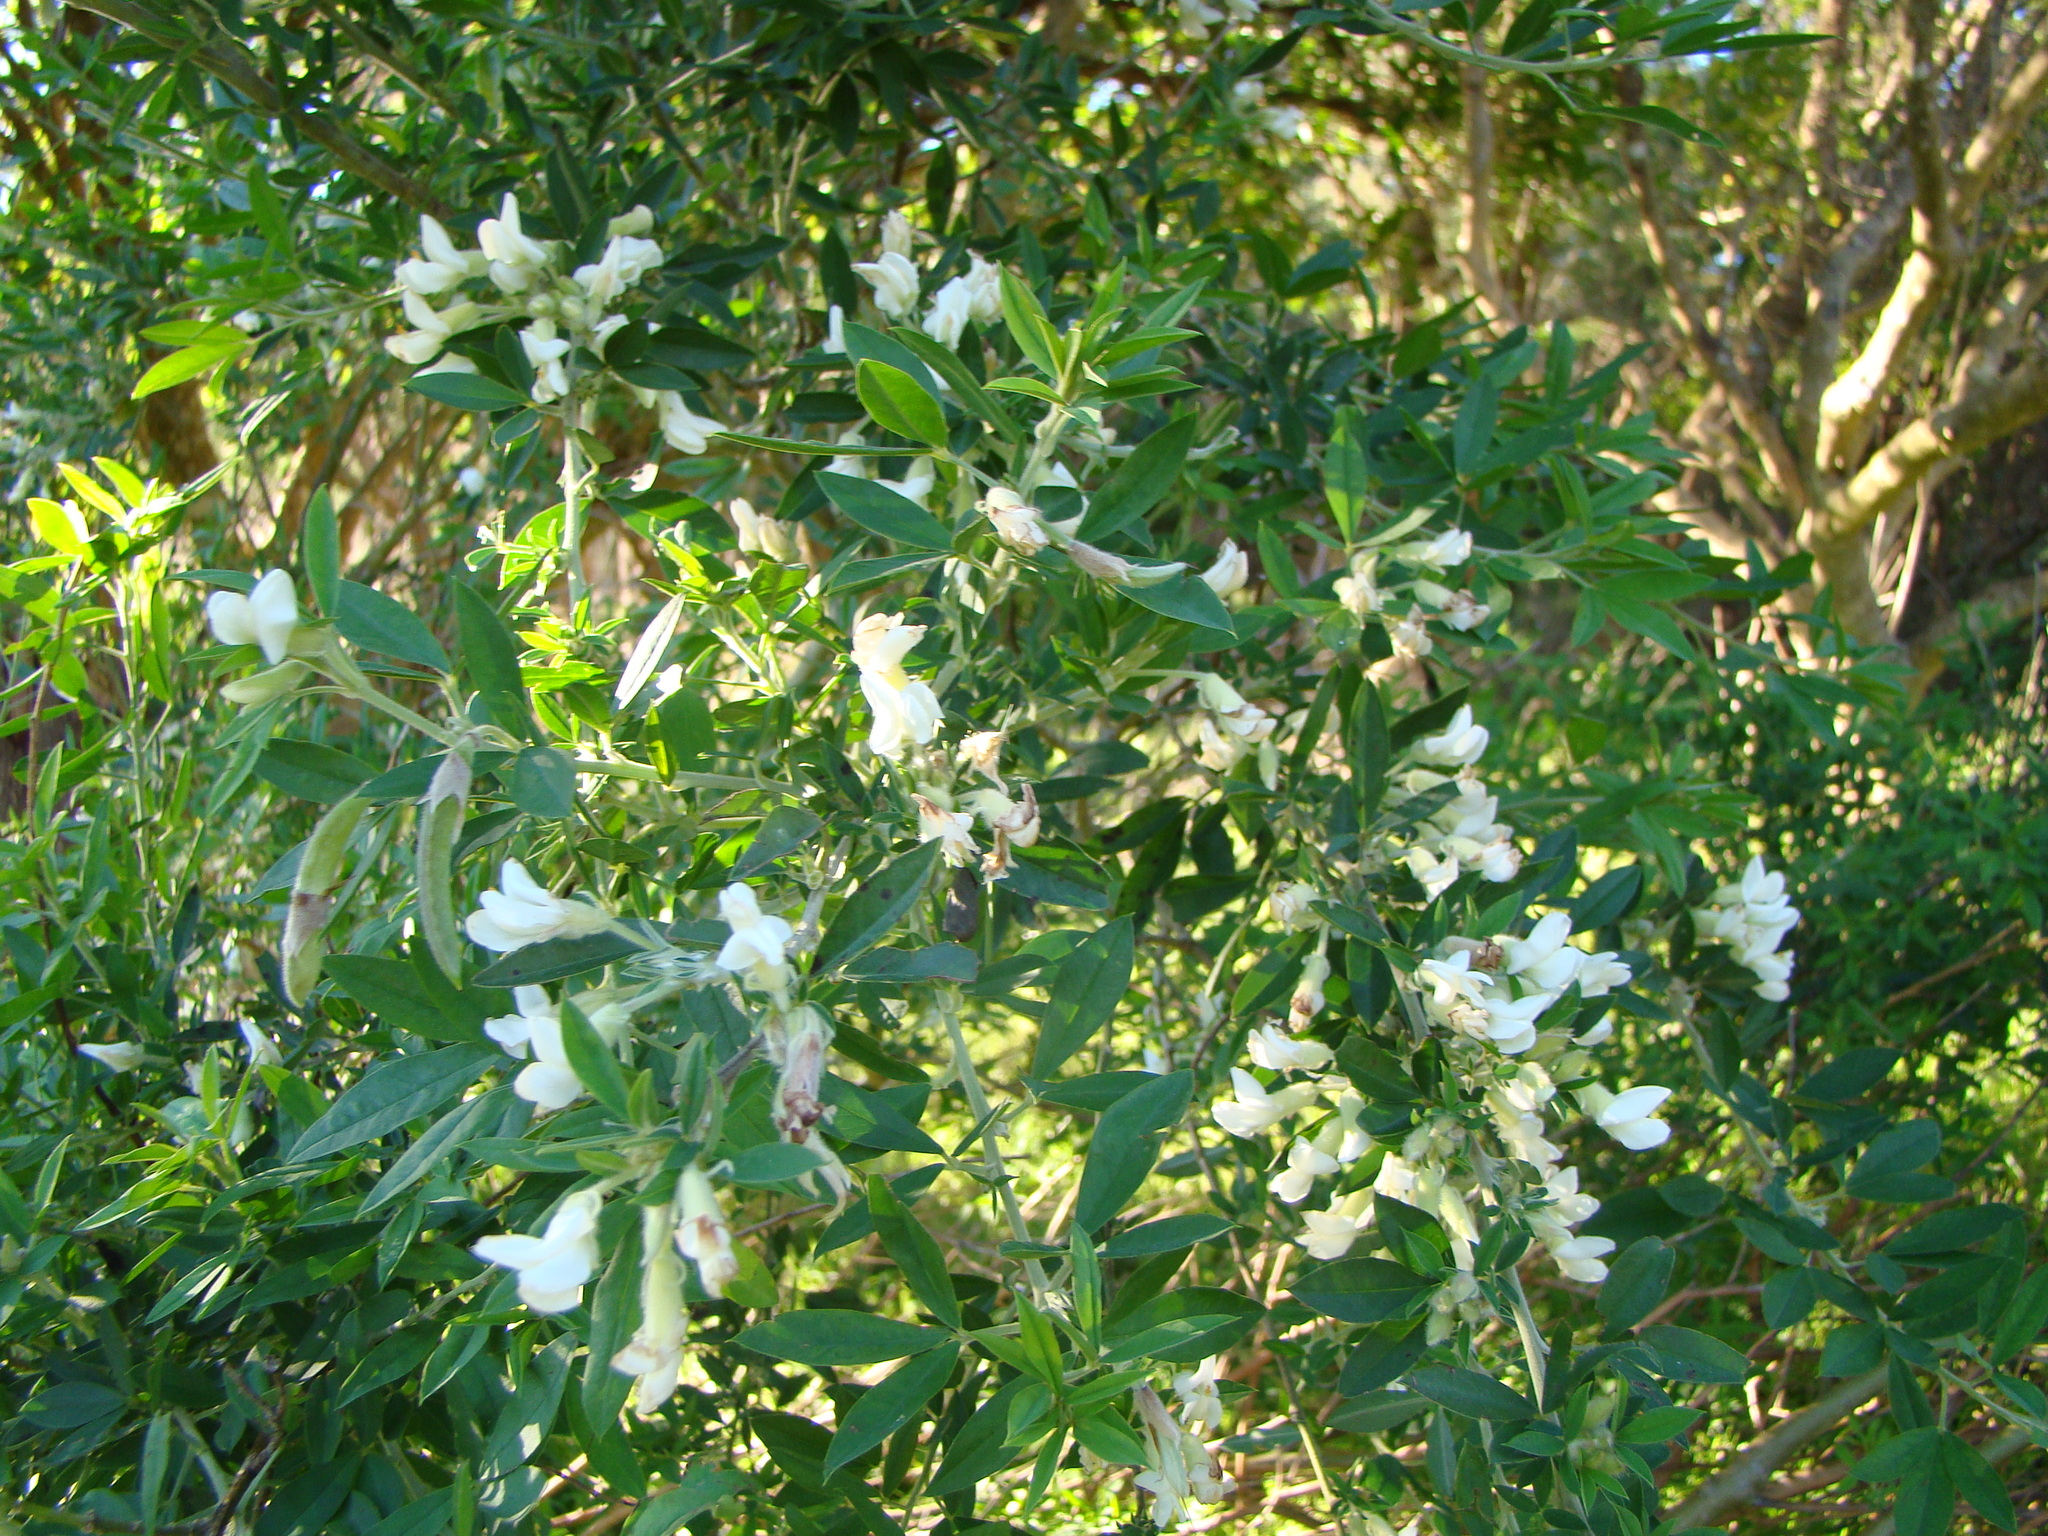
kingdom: Plantae
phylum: Tracheophyta
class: Magnoliopsida
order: Fabales
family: Fabaceae
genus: Chamaecytisus
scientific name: Chamaecytisus prolifer
